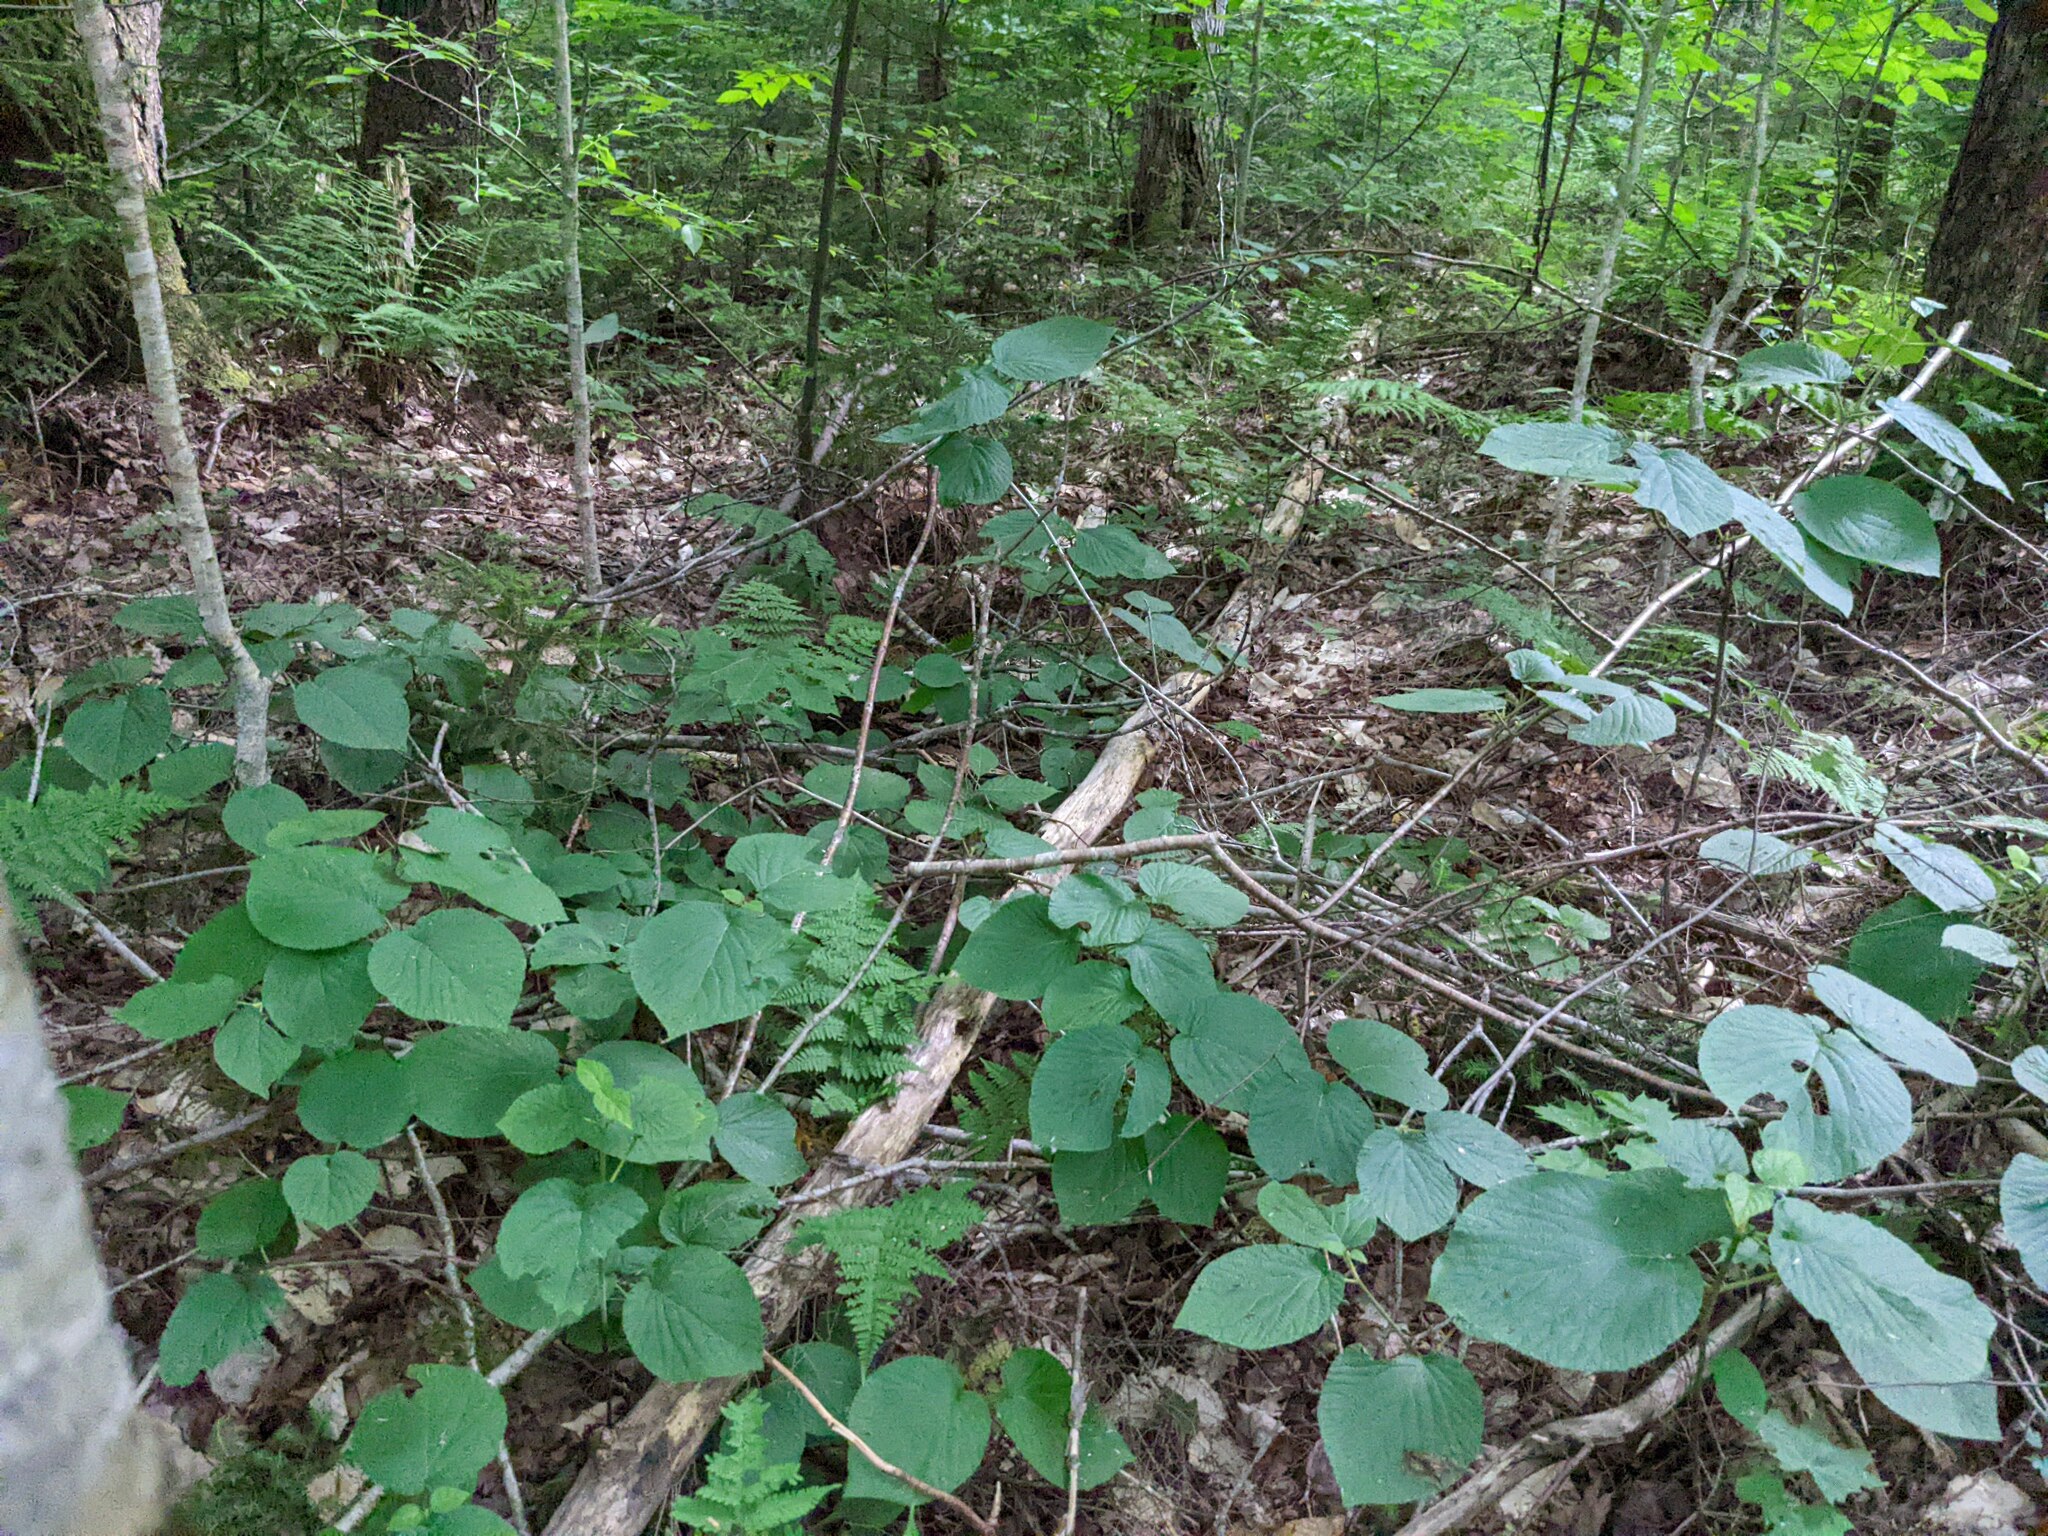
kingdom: Plantae
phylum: Tracheophyta
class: Magnoliopsida
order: Dipsacales
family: Viburnaceae
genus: Viburnum
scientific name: Viburnum lantanoides
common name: Hobblebush
